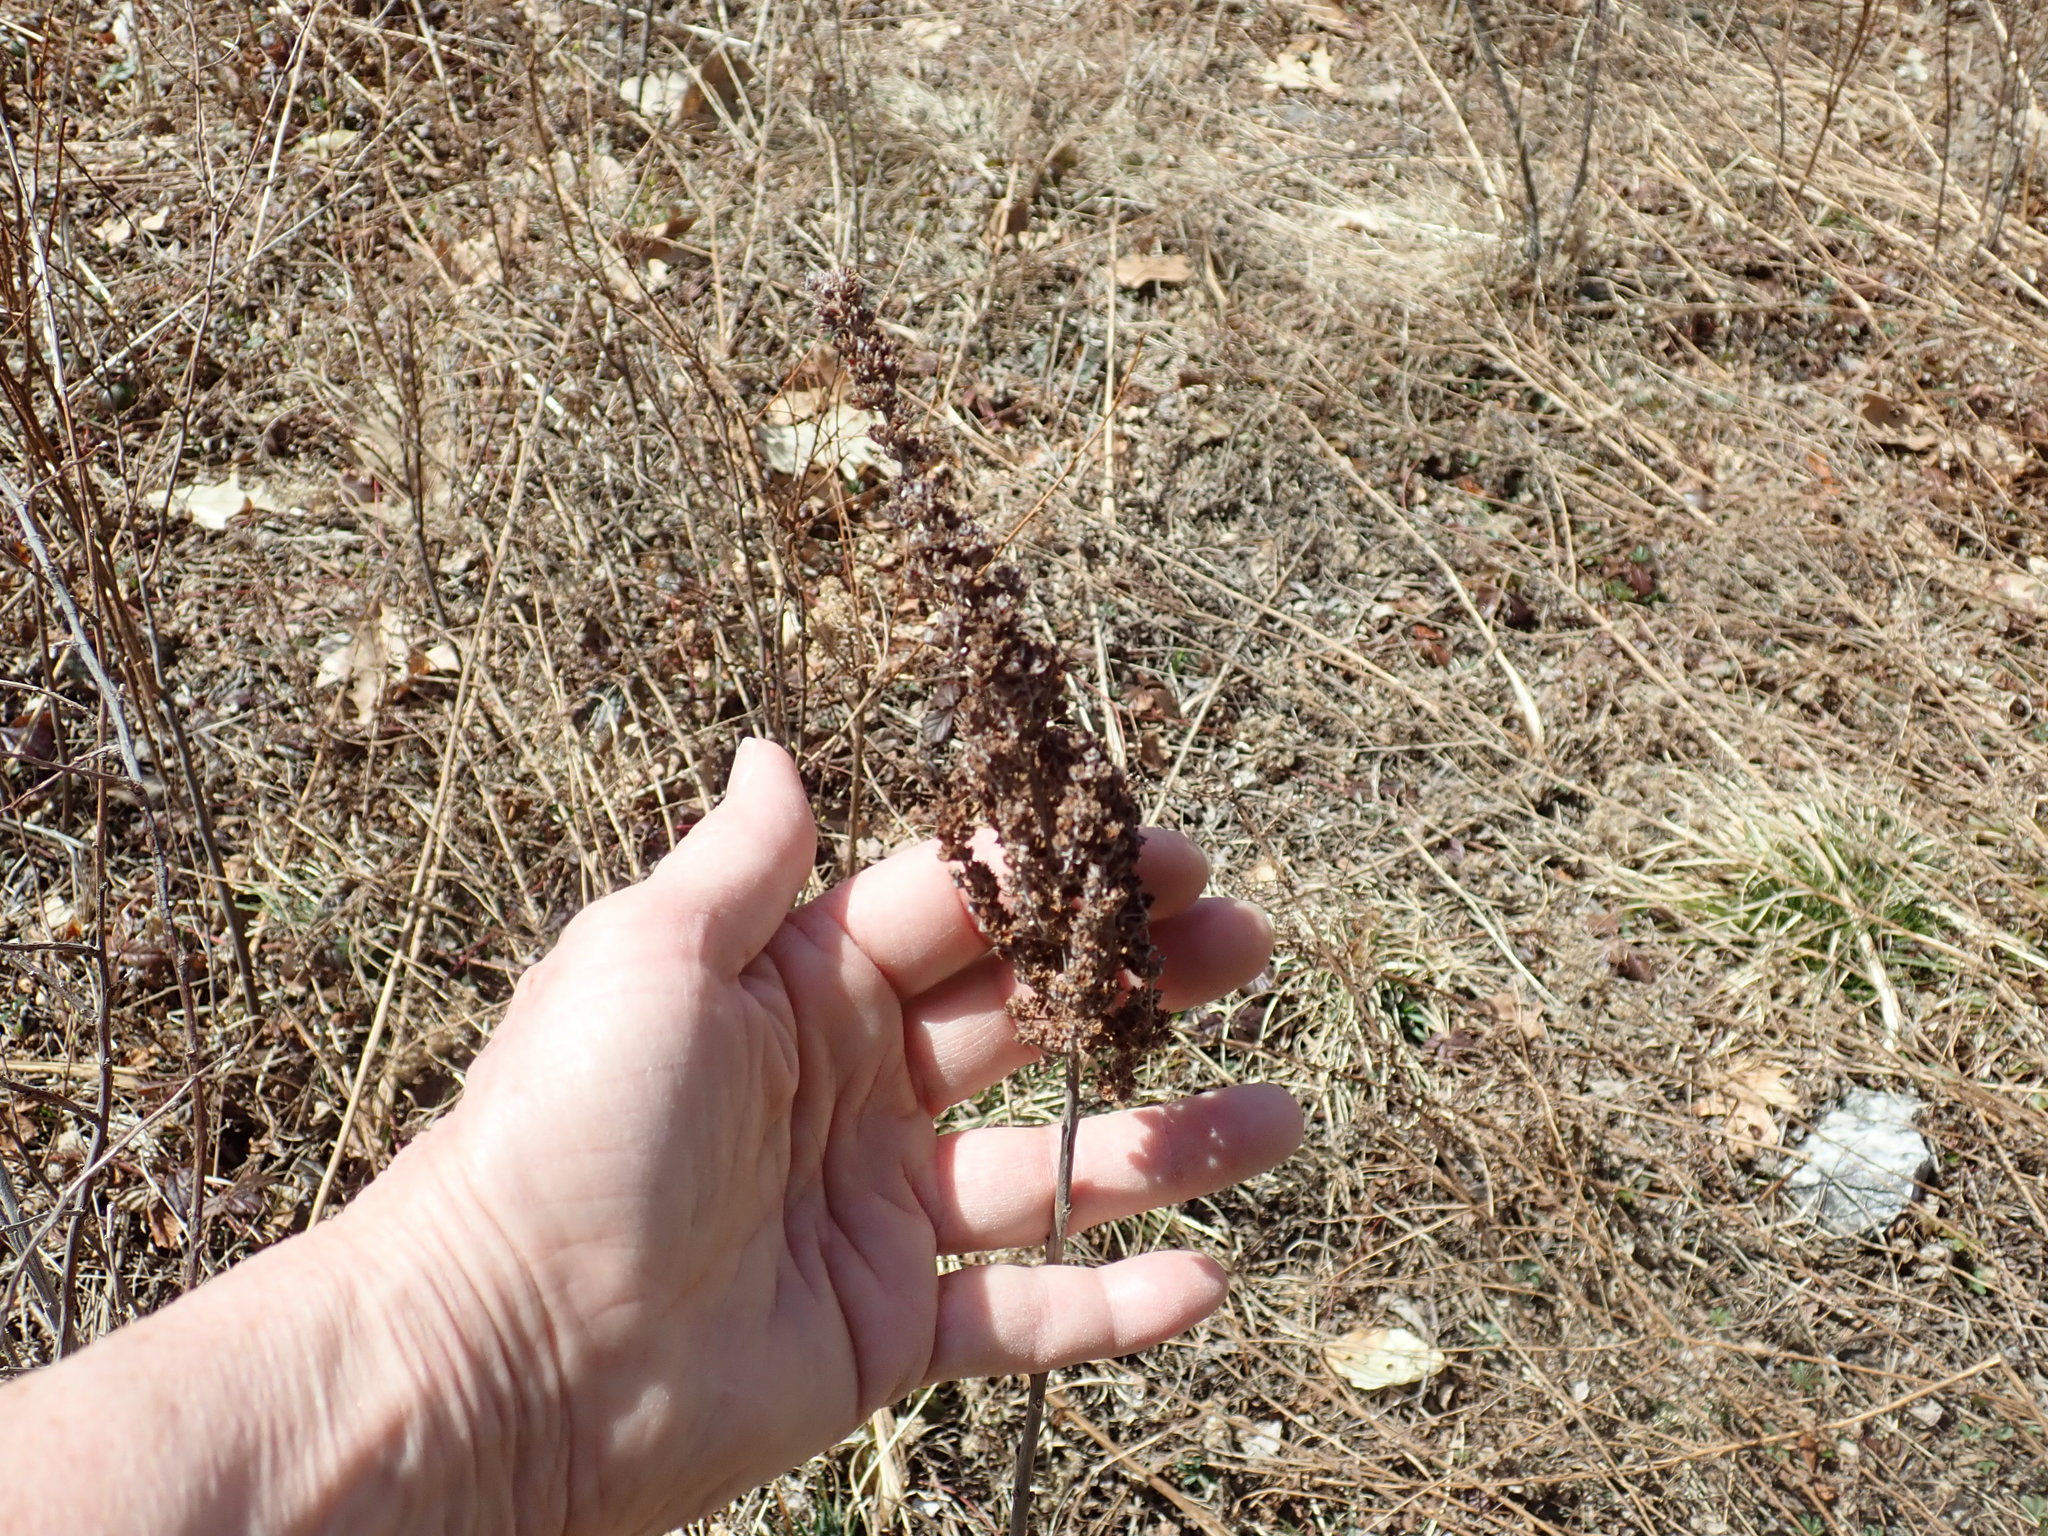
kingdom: Plantae
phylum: Tracheophyta
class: Magnoliopsida
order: Rosales
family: Rosaceae
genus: Spiraea
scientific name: Spiraea tomentosa
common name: Hardhack
